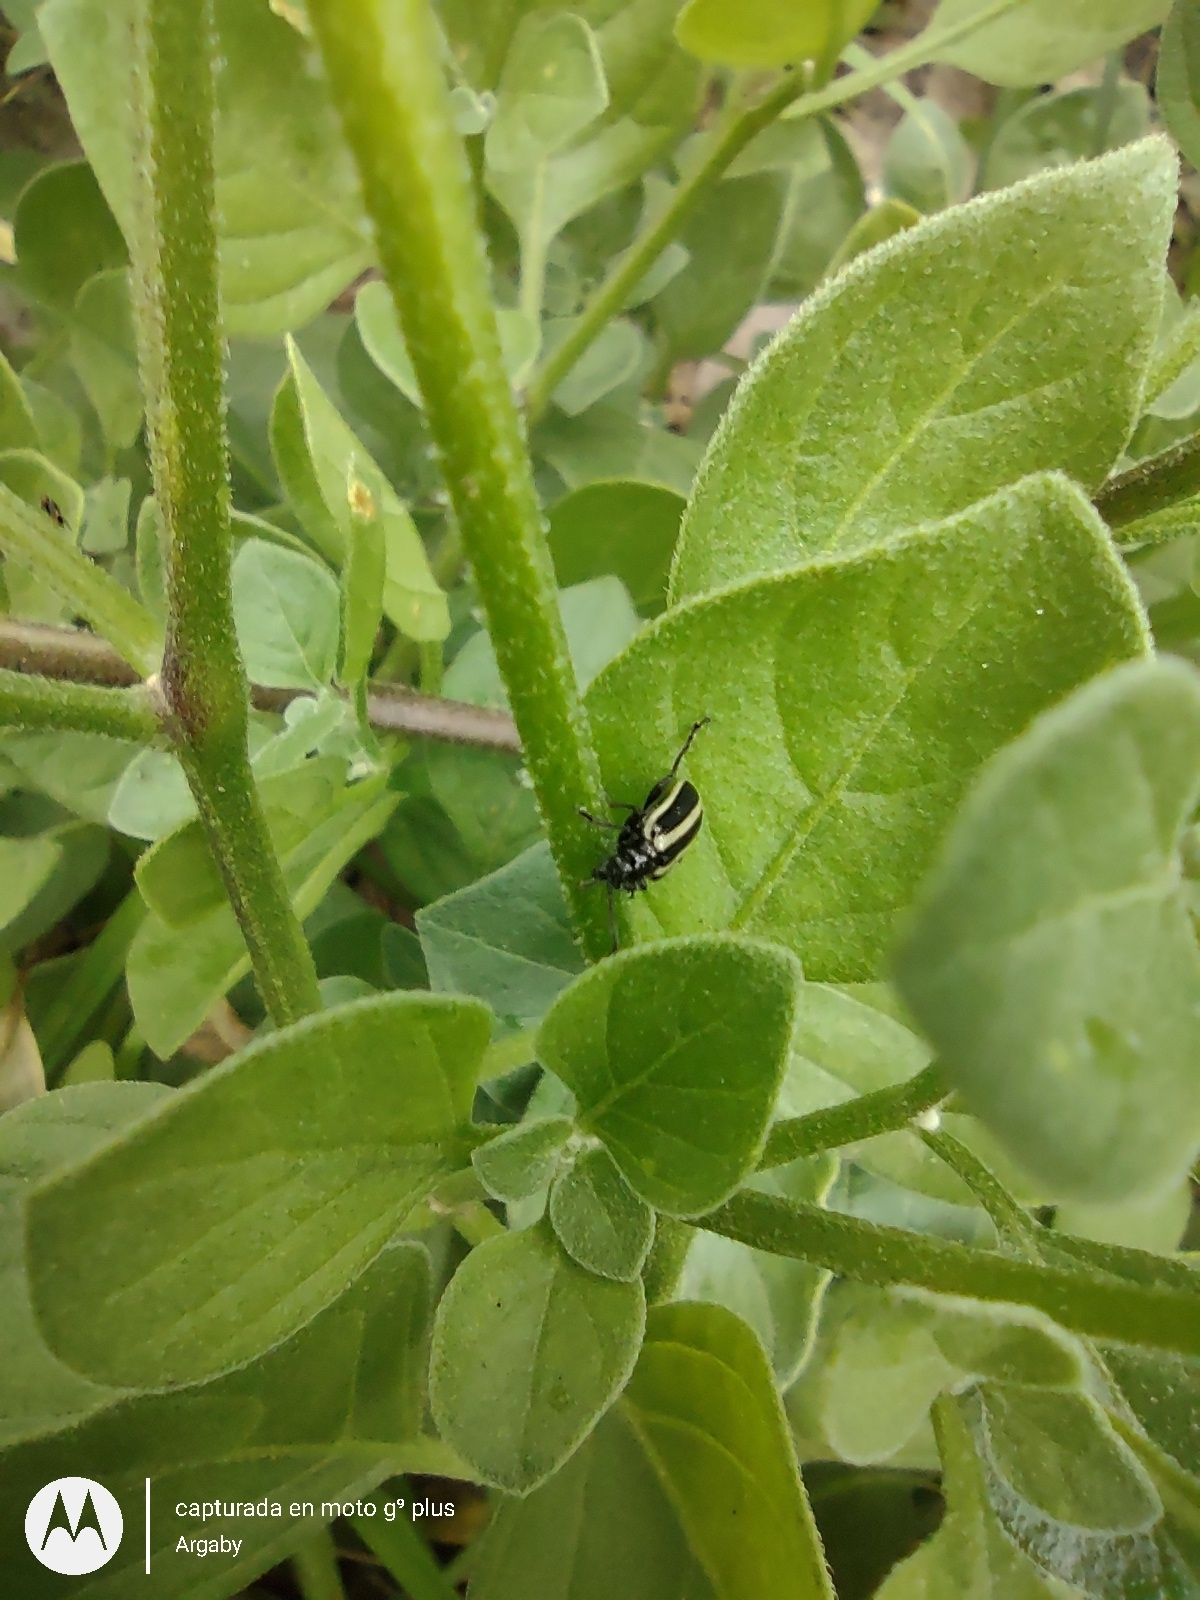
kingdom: Animalia
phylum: Arthropoda
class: Insecta
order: Coleoptera
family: Chrysomelidae
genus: Lema
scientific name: Lema bilineata
